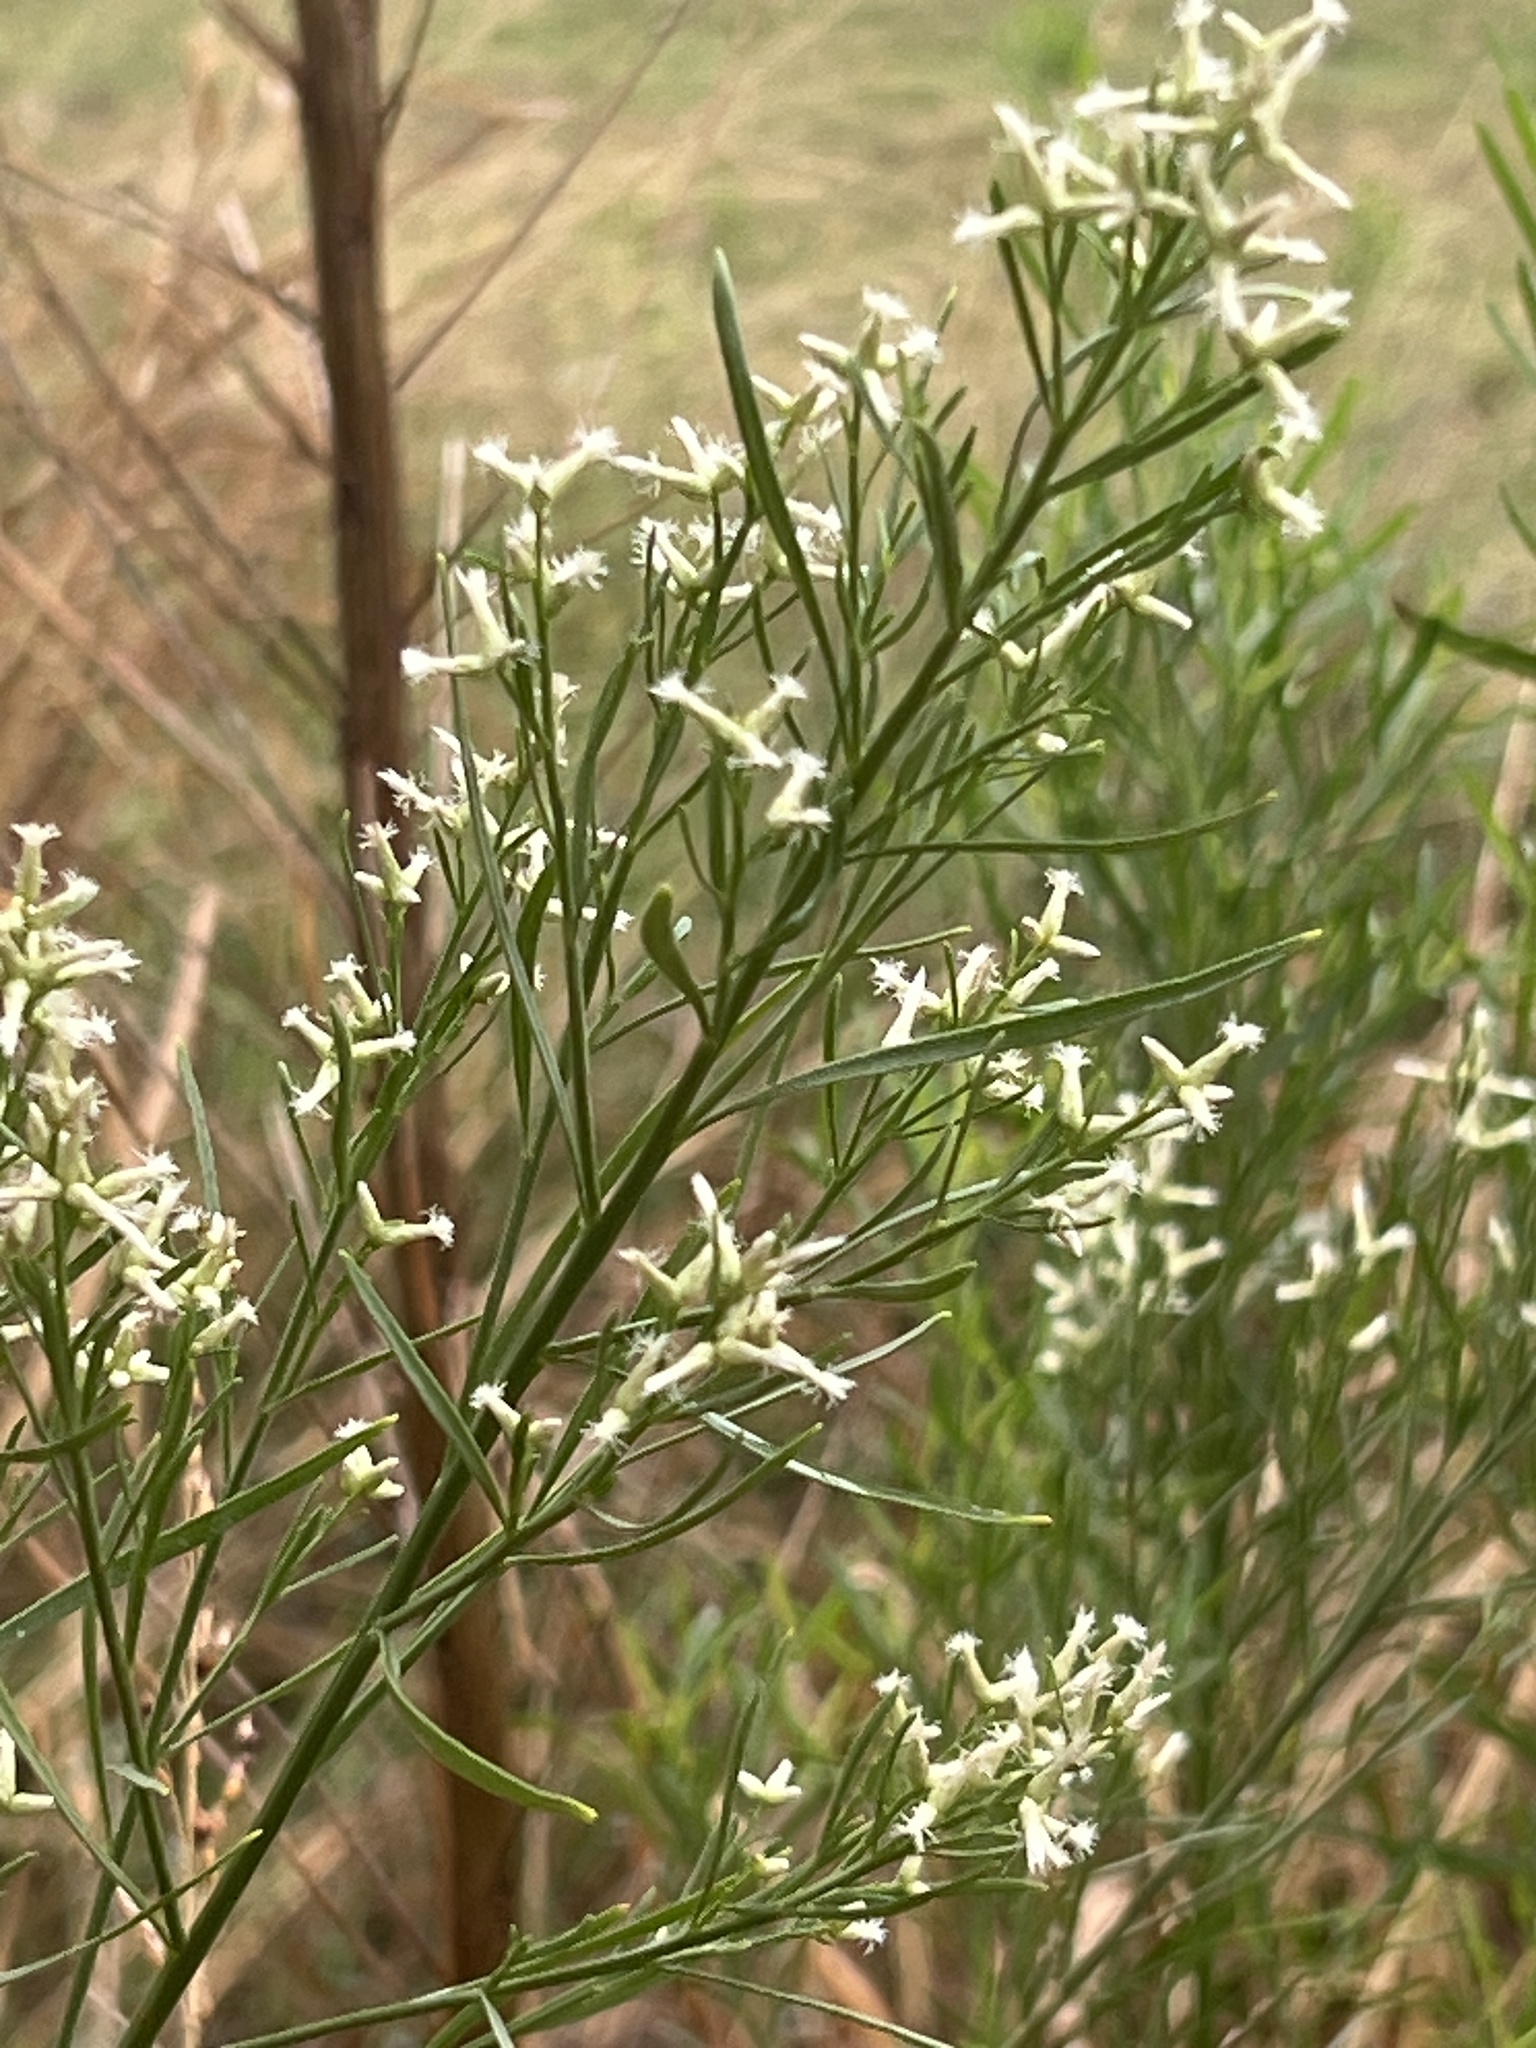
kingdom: Plantae
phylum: Tracheophyta
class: Magnoliopsida
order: Asterales
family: Asteraceae
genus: Baccharis
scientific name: Baccharis neglecta
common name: Roosevelt-weed
